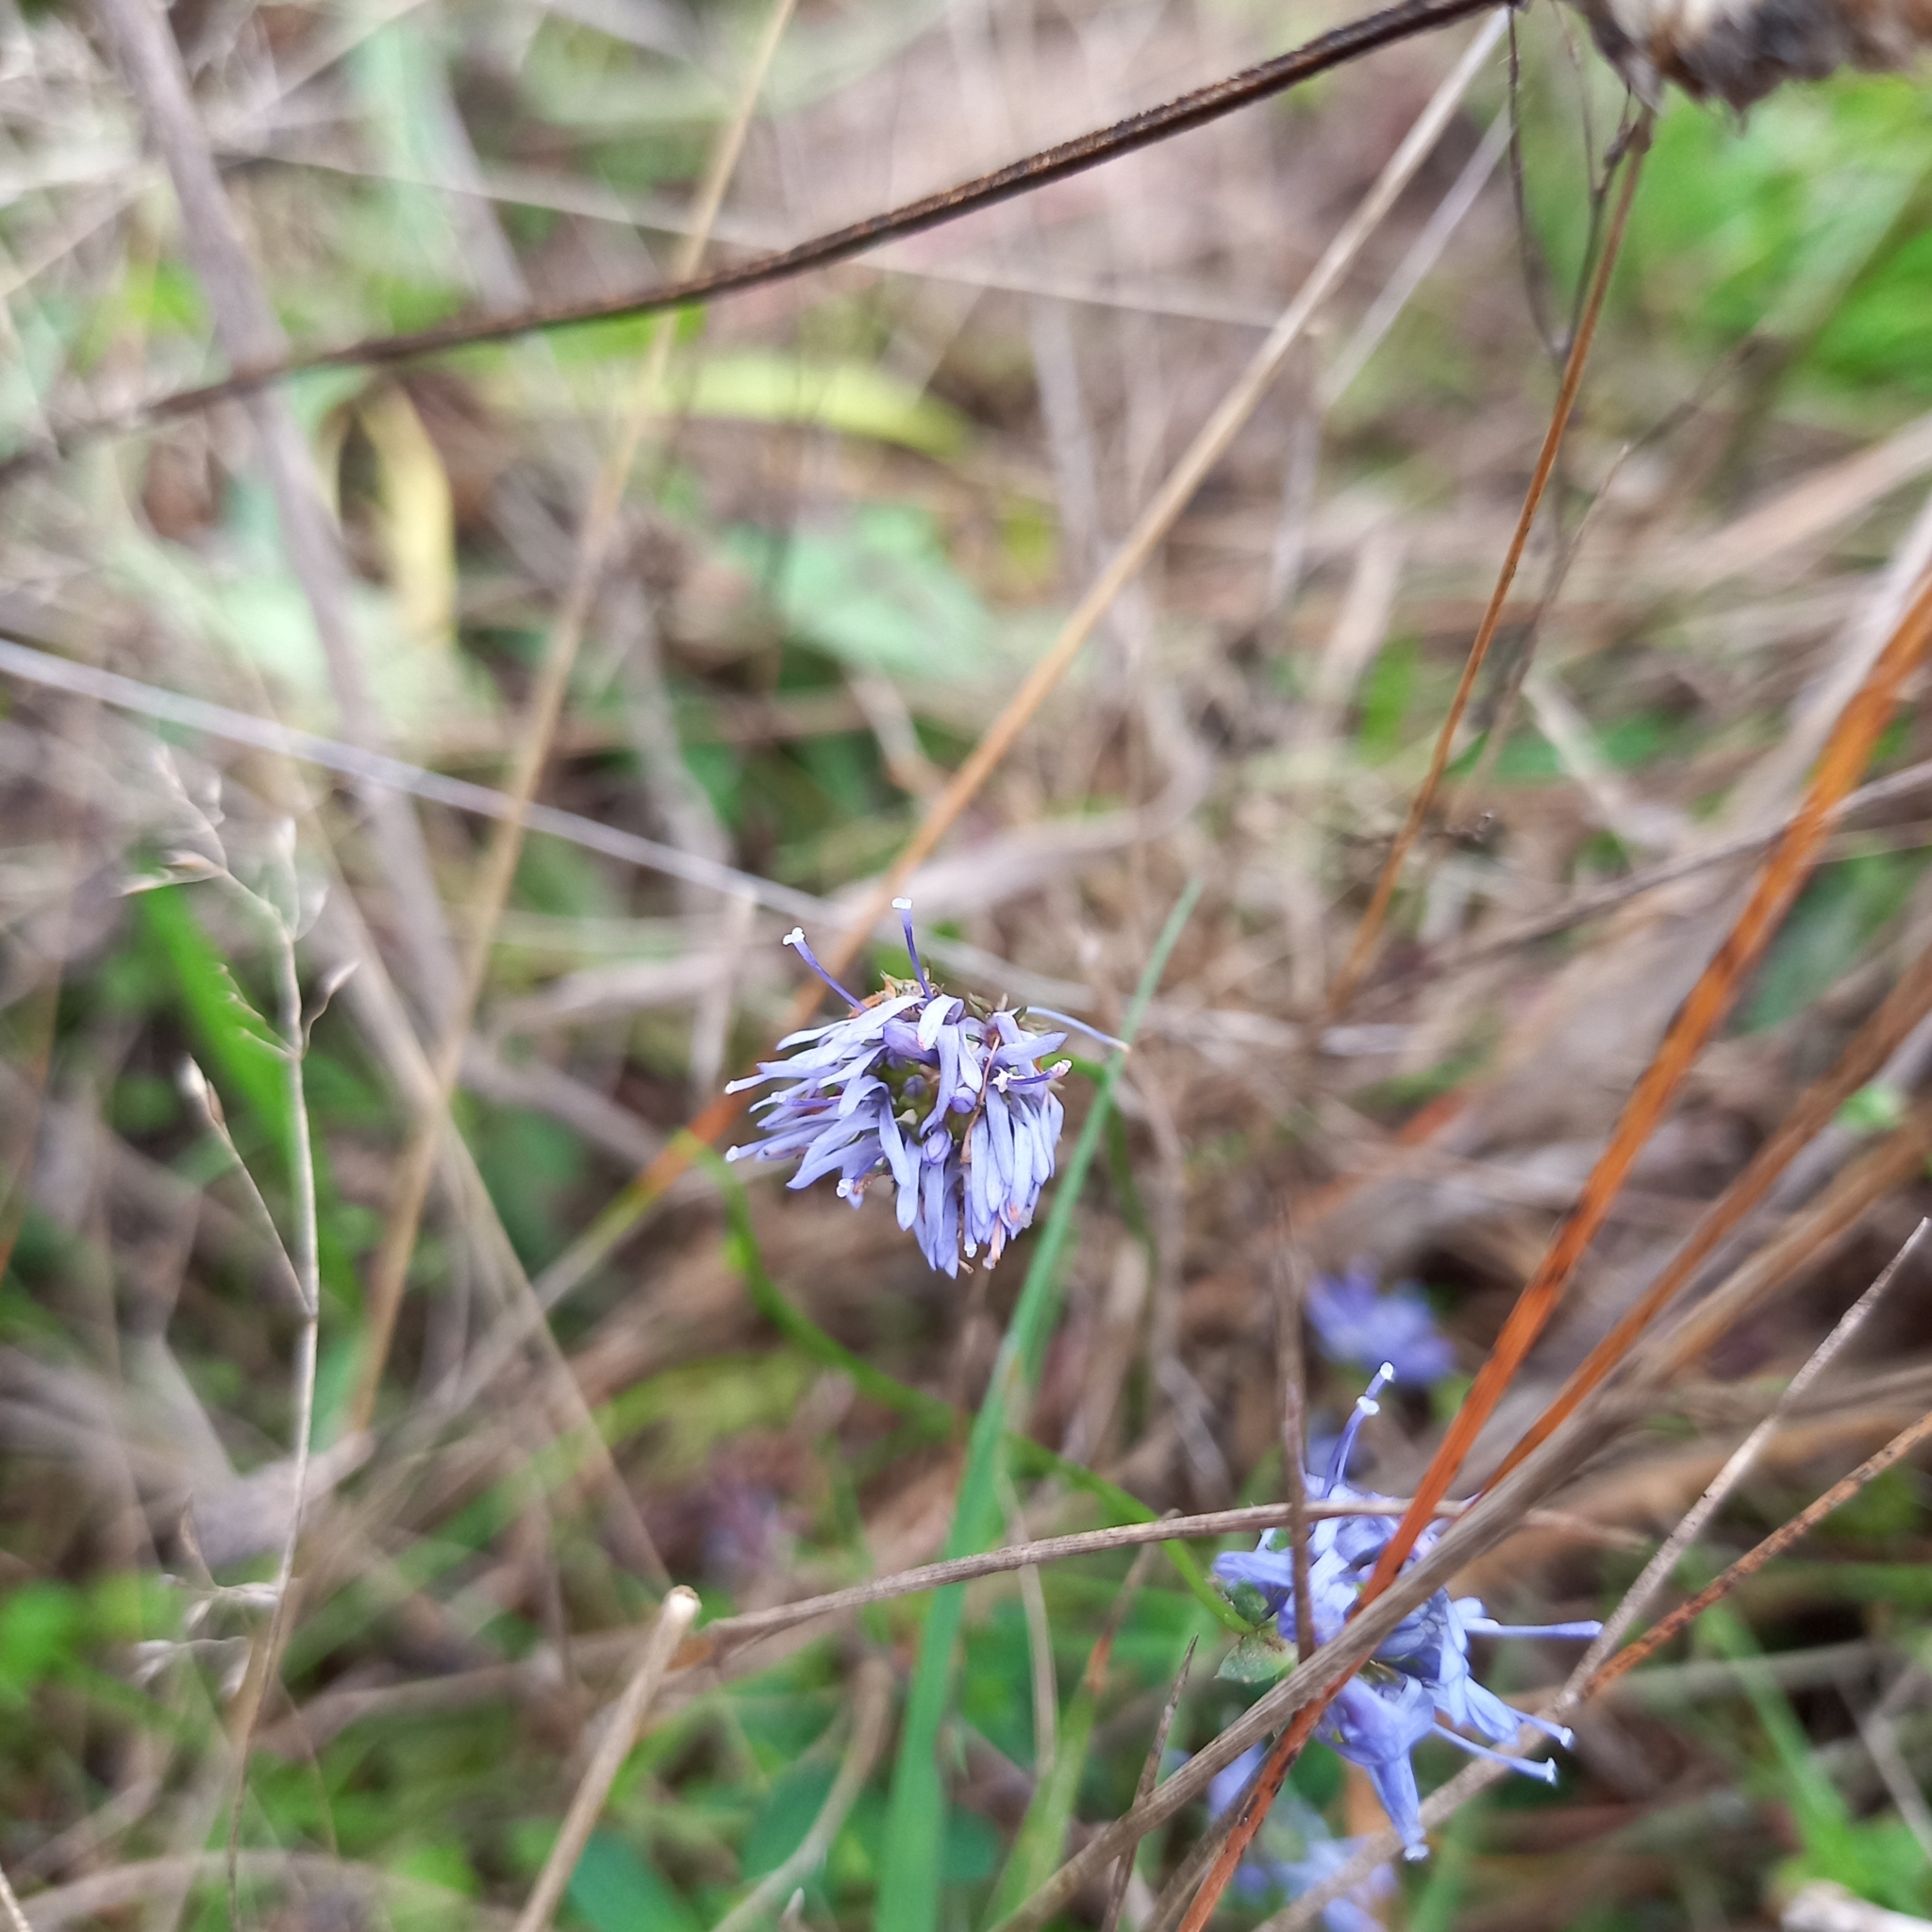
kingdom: Plantae
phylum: Tracheophyta
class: Magnoliopsida
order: Asterales
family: Campanulaceae
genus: Jasione
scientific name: Jasione montana
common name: Sheep's-bit
